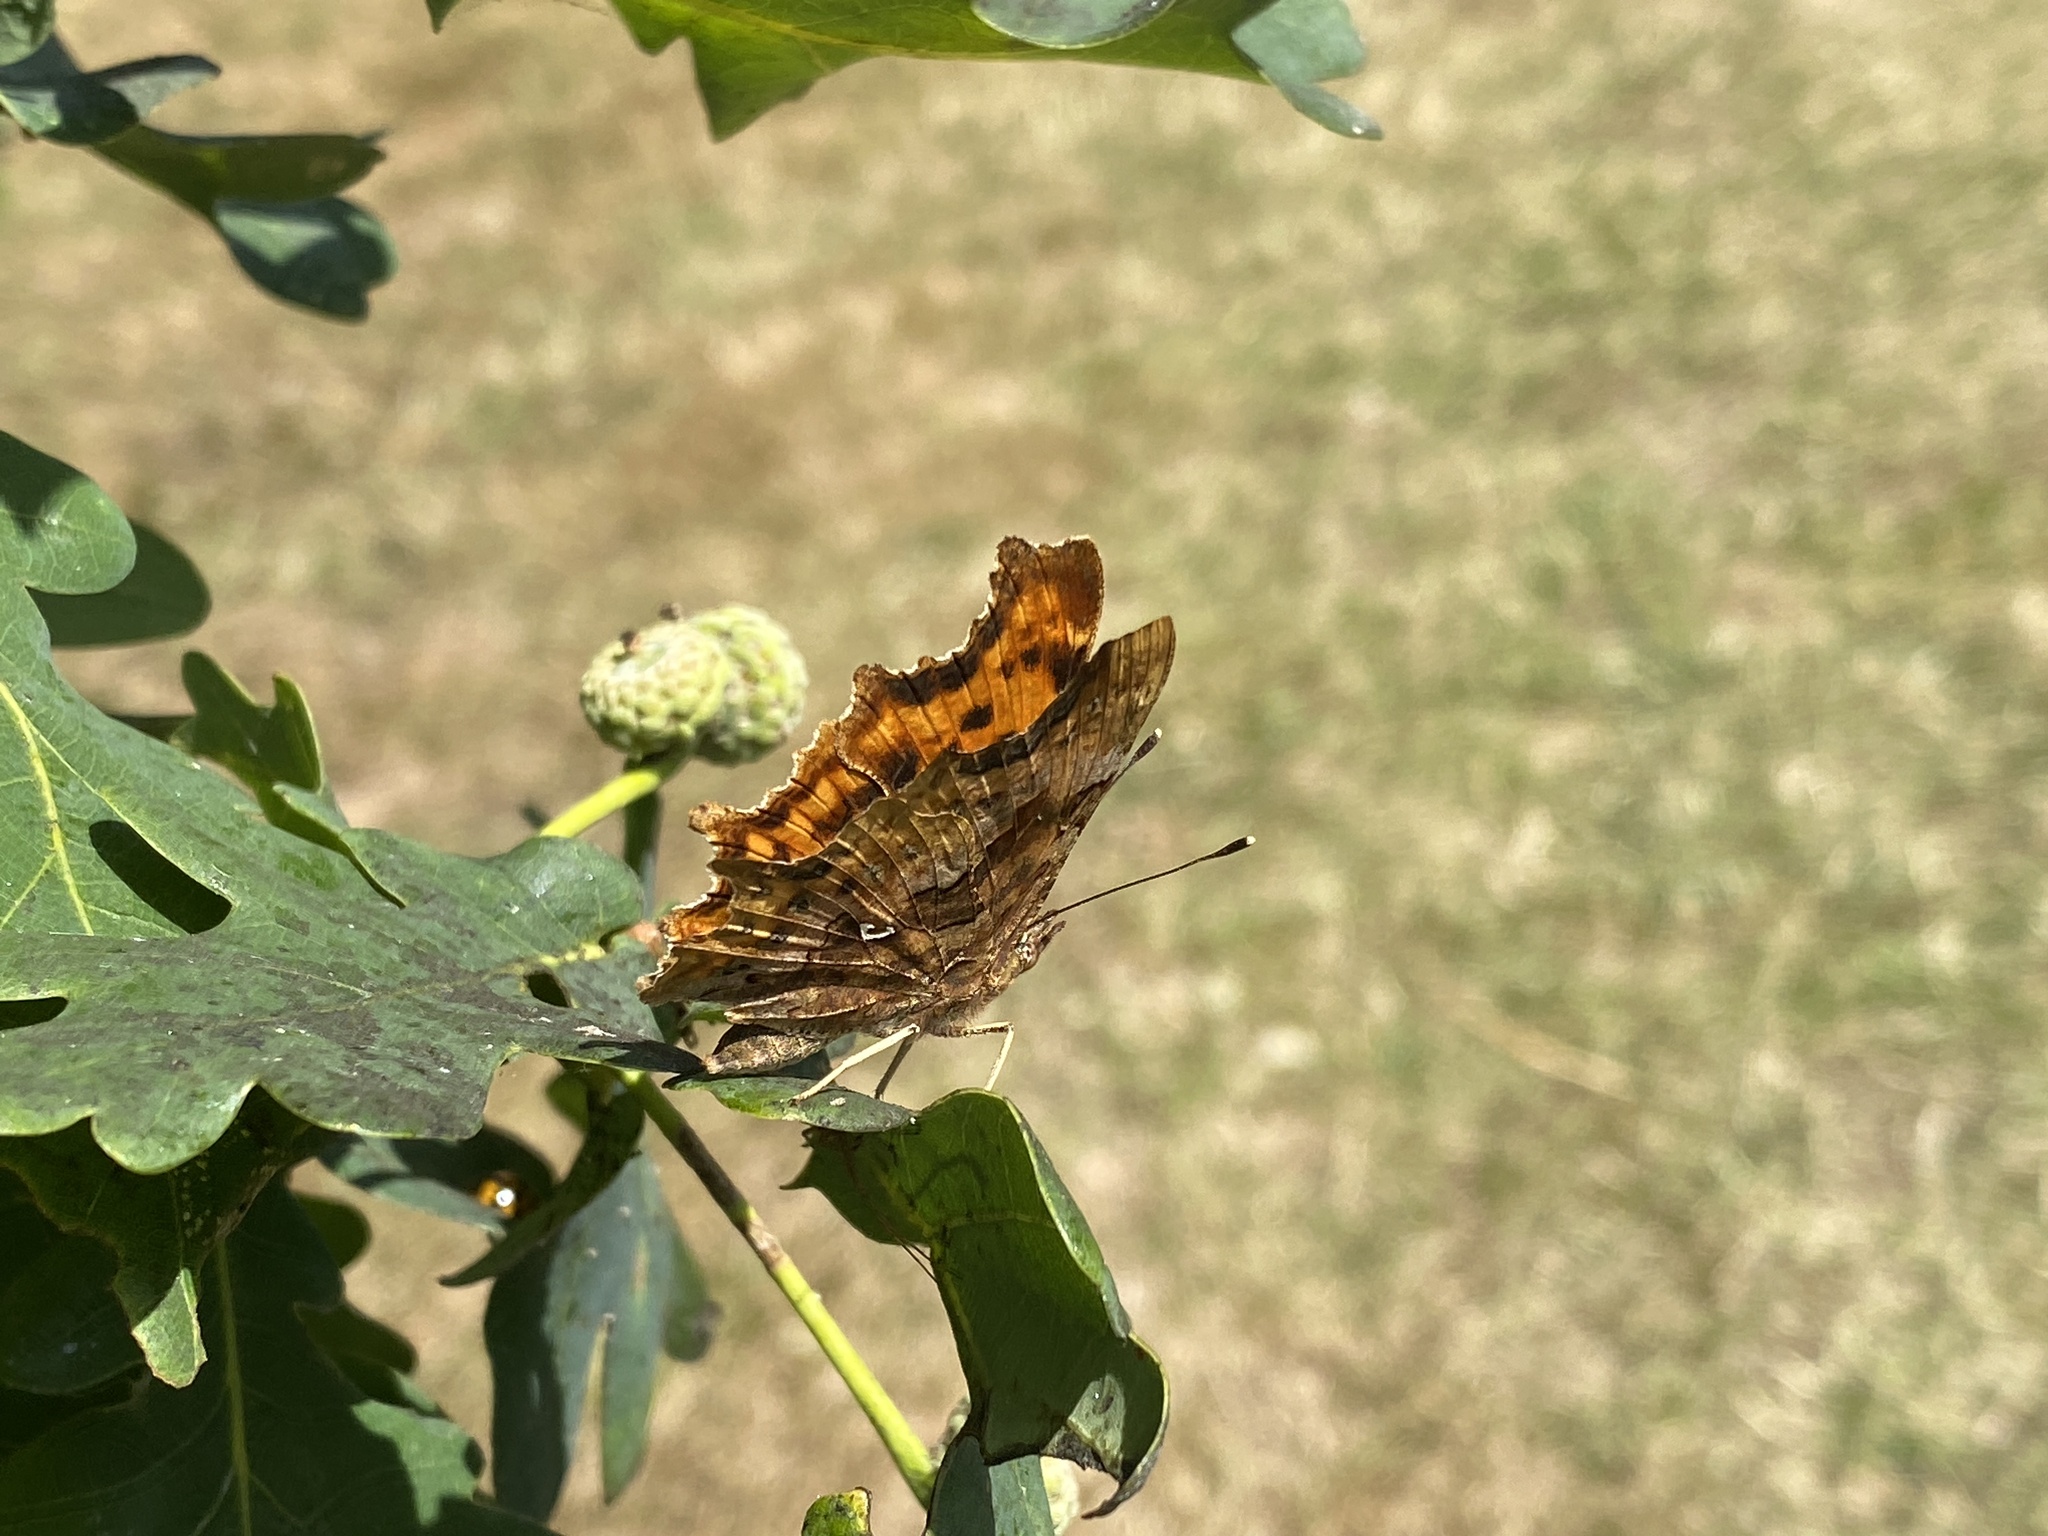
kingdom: Animalia
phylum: Arthropoda
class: Insecta
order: Lepidoptera
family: Nymphalidae
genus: Polygonia
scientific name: Polygonia c-album
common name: Comma
